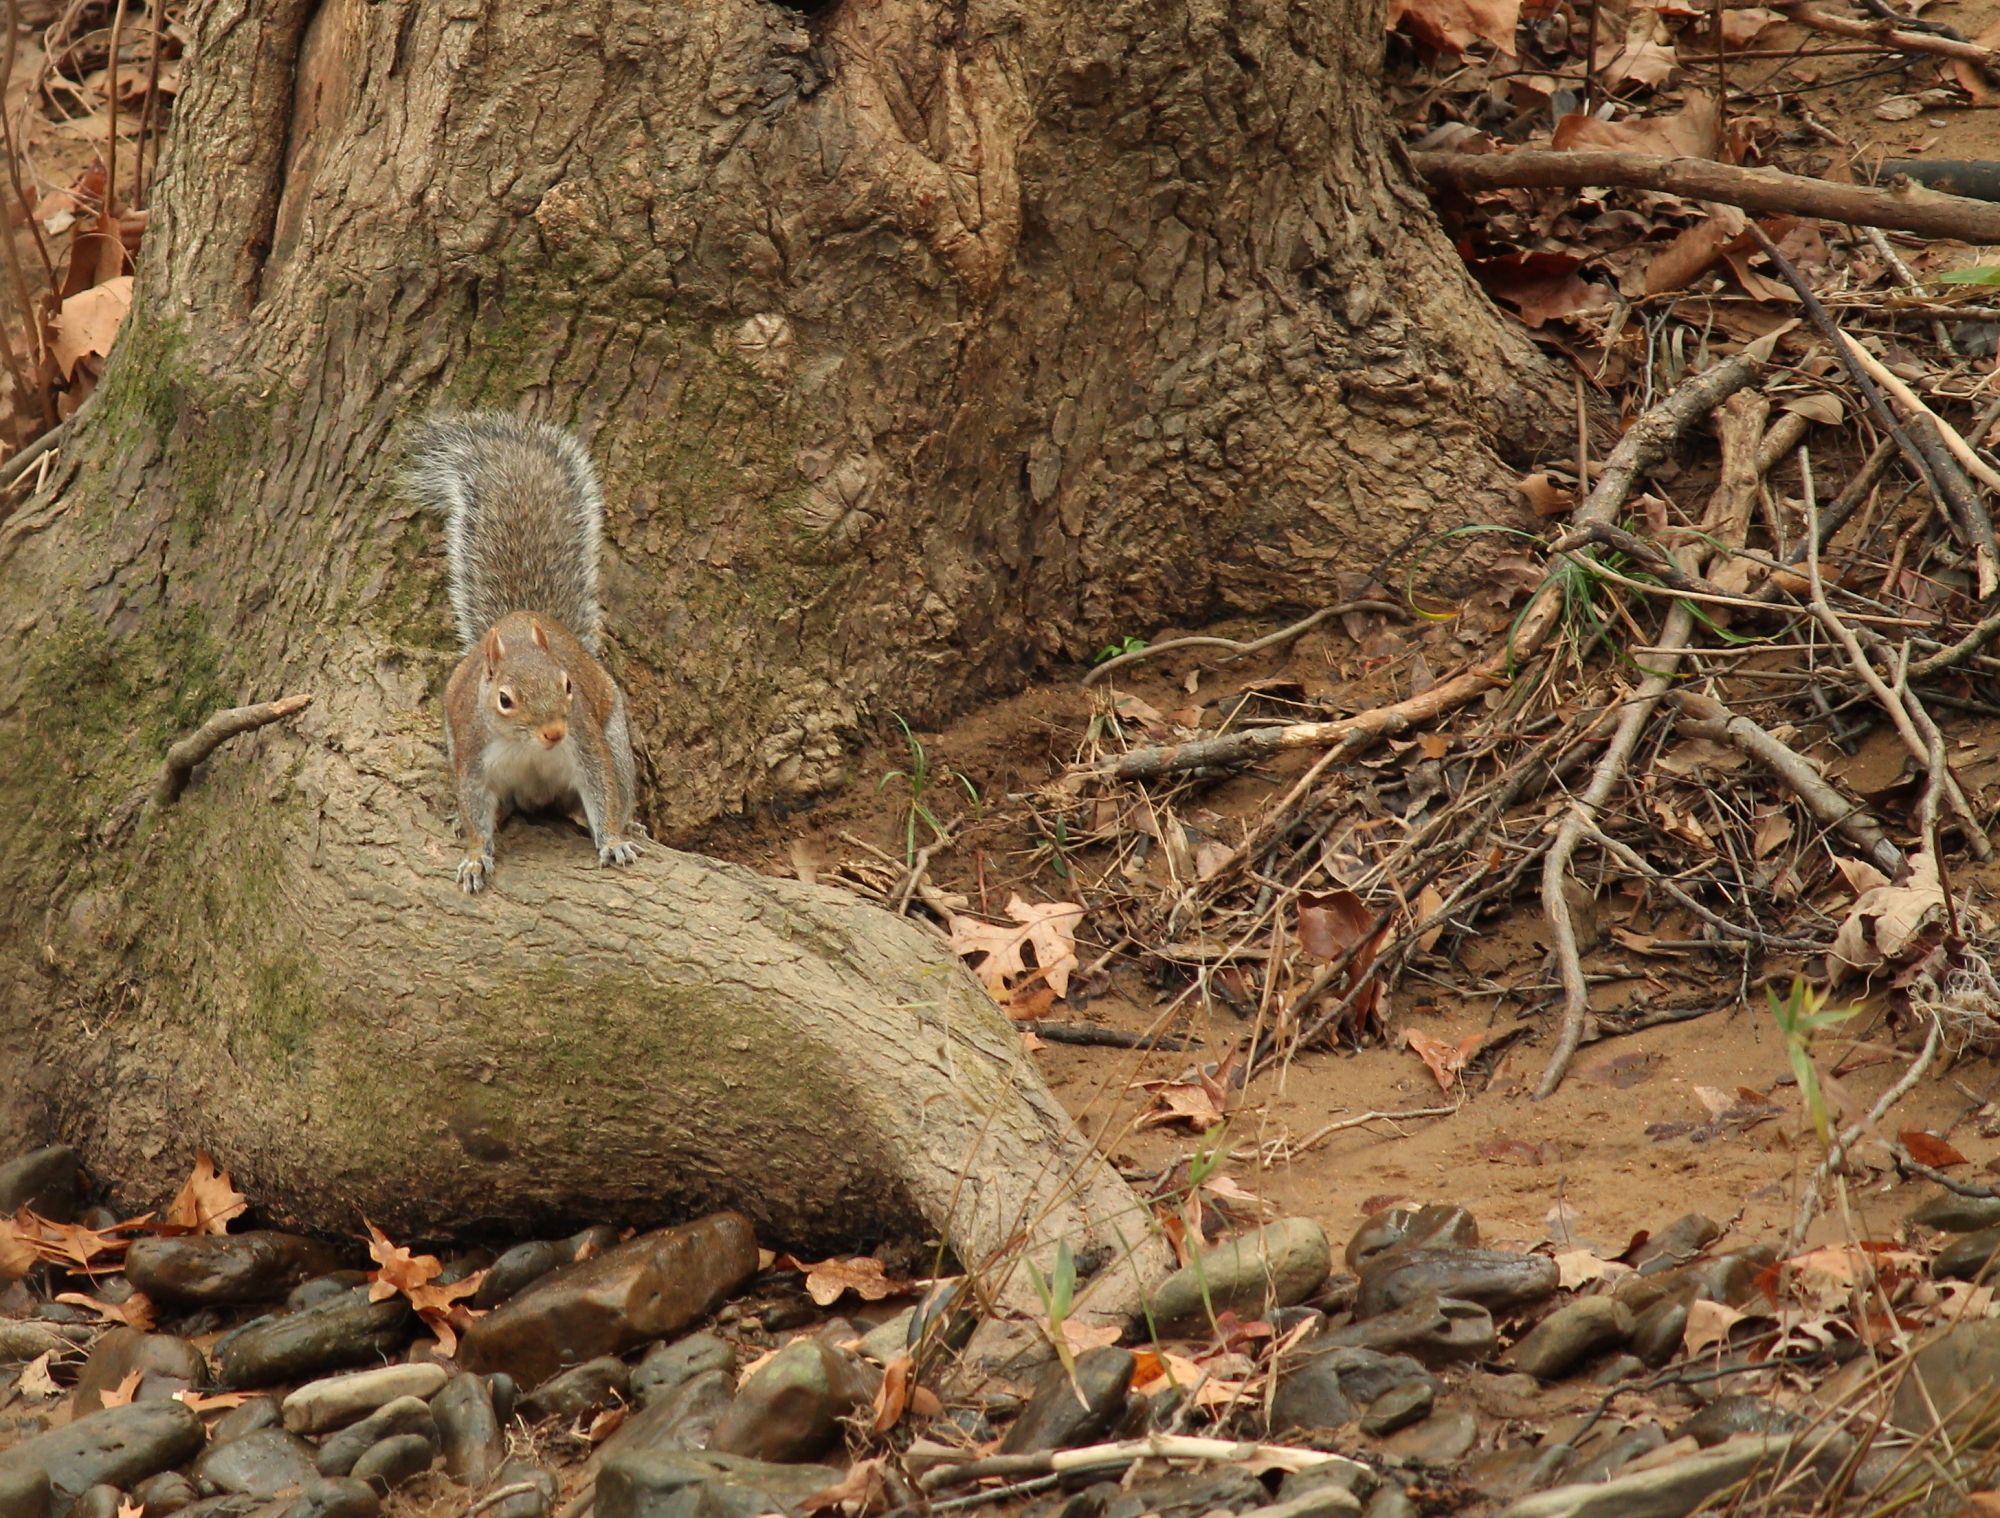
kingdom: Animalia
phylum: Chordata
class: Mammalia
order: Rodentia
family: Sciuridae
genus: Sciurus
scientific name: Sciurus carolinensis
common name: Eastern gray squirrel
